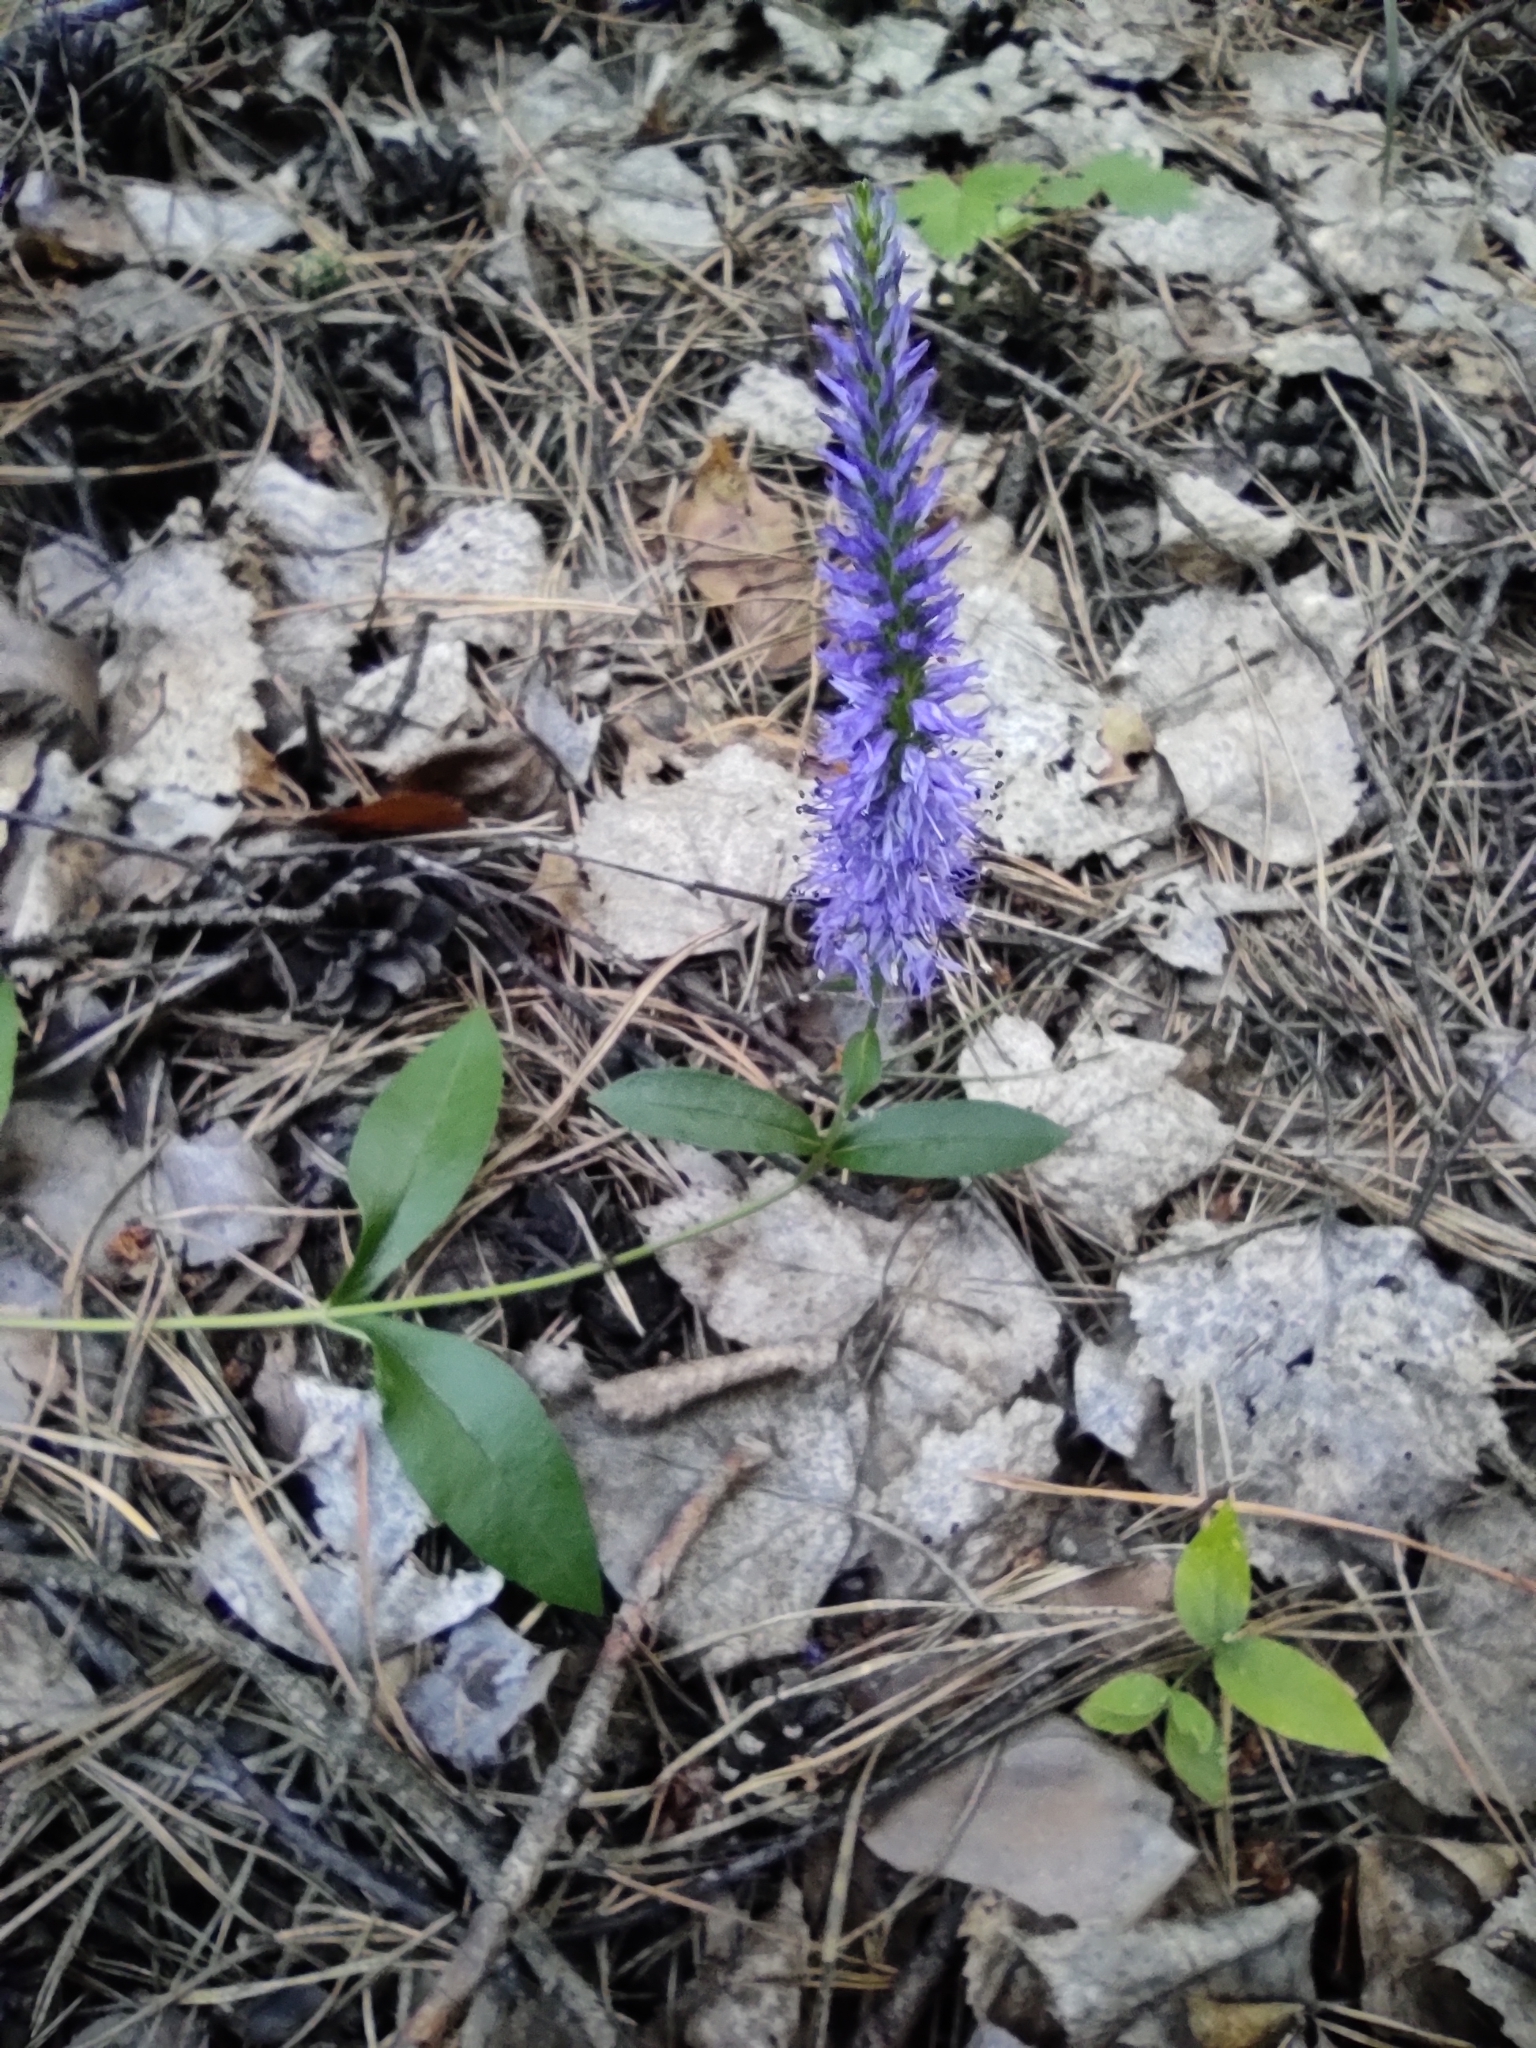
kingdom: Plantae
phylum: Tracheophyta
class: Magnoliopsida
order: Lamiales
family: Plantaginaceae
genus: Veronica
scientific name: Veronica spicata
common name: Spiked speedwell
